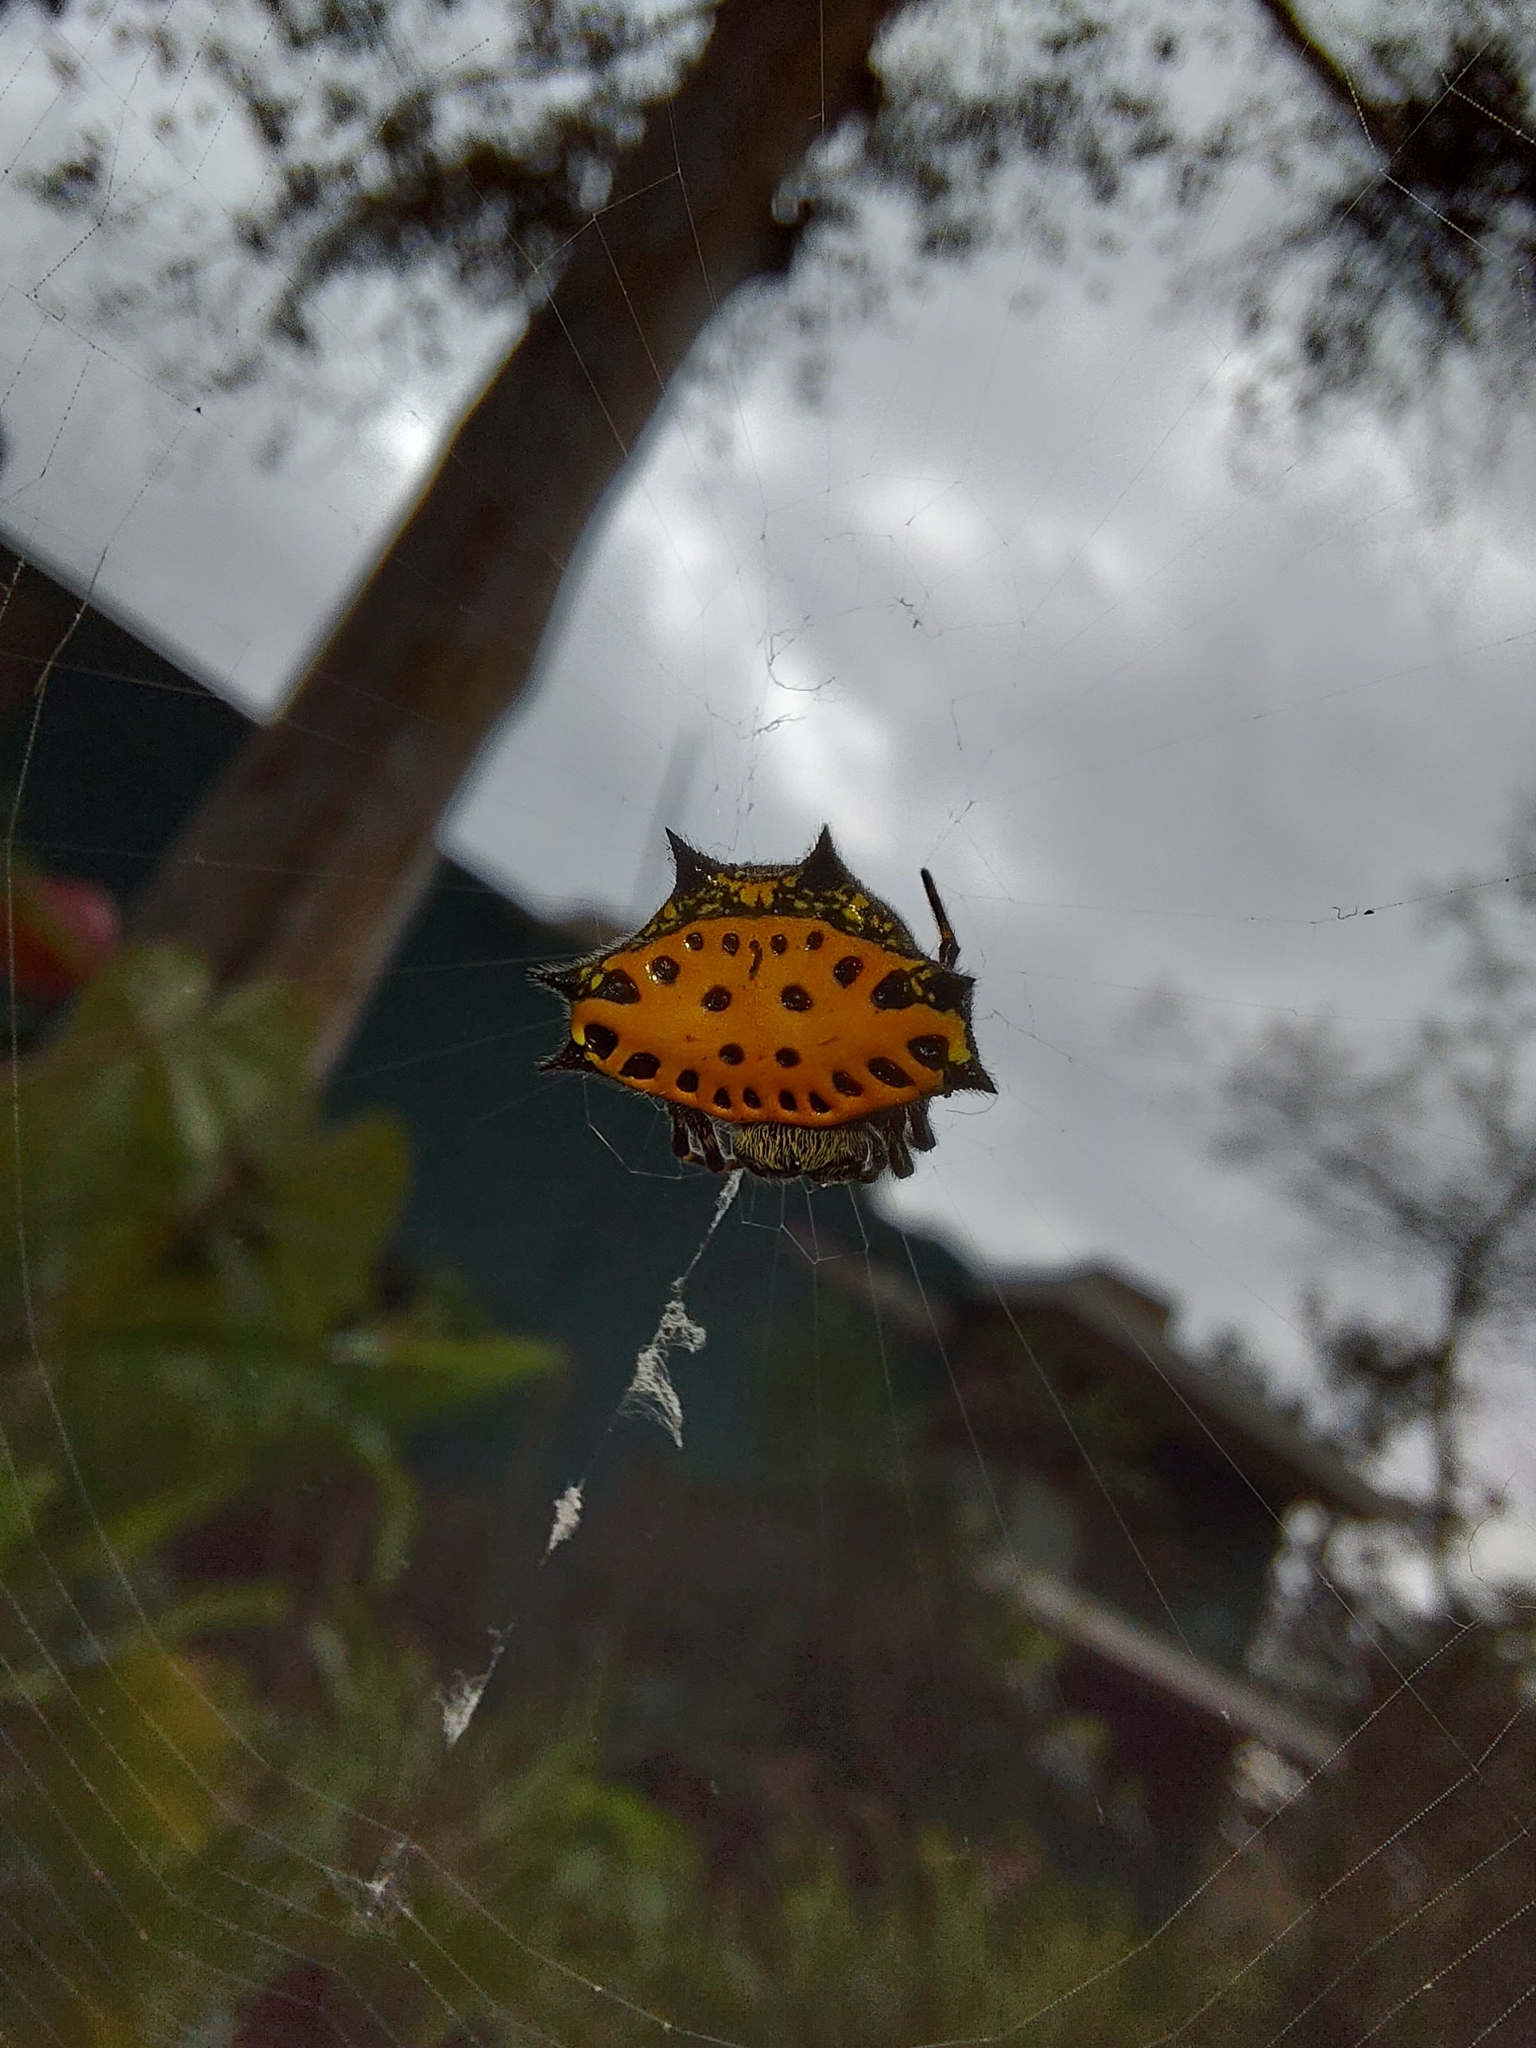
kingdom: Animalia
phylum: Arthropoda
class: Arachnida
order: Araneae
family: Araneidae
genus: Gasteracantha
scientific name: Gasteracantha cancriformis
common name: Orb weavers
